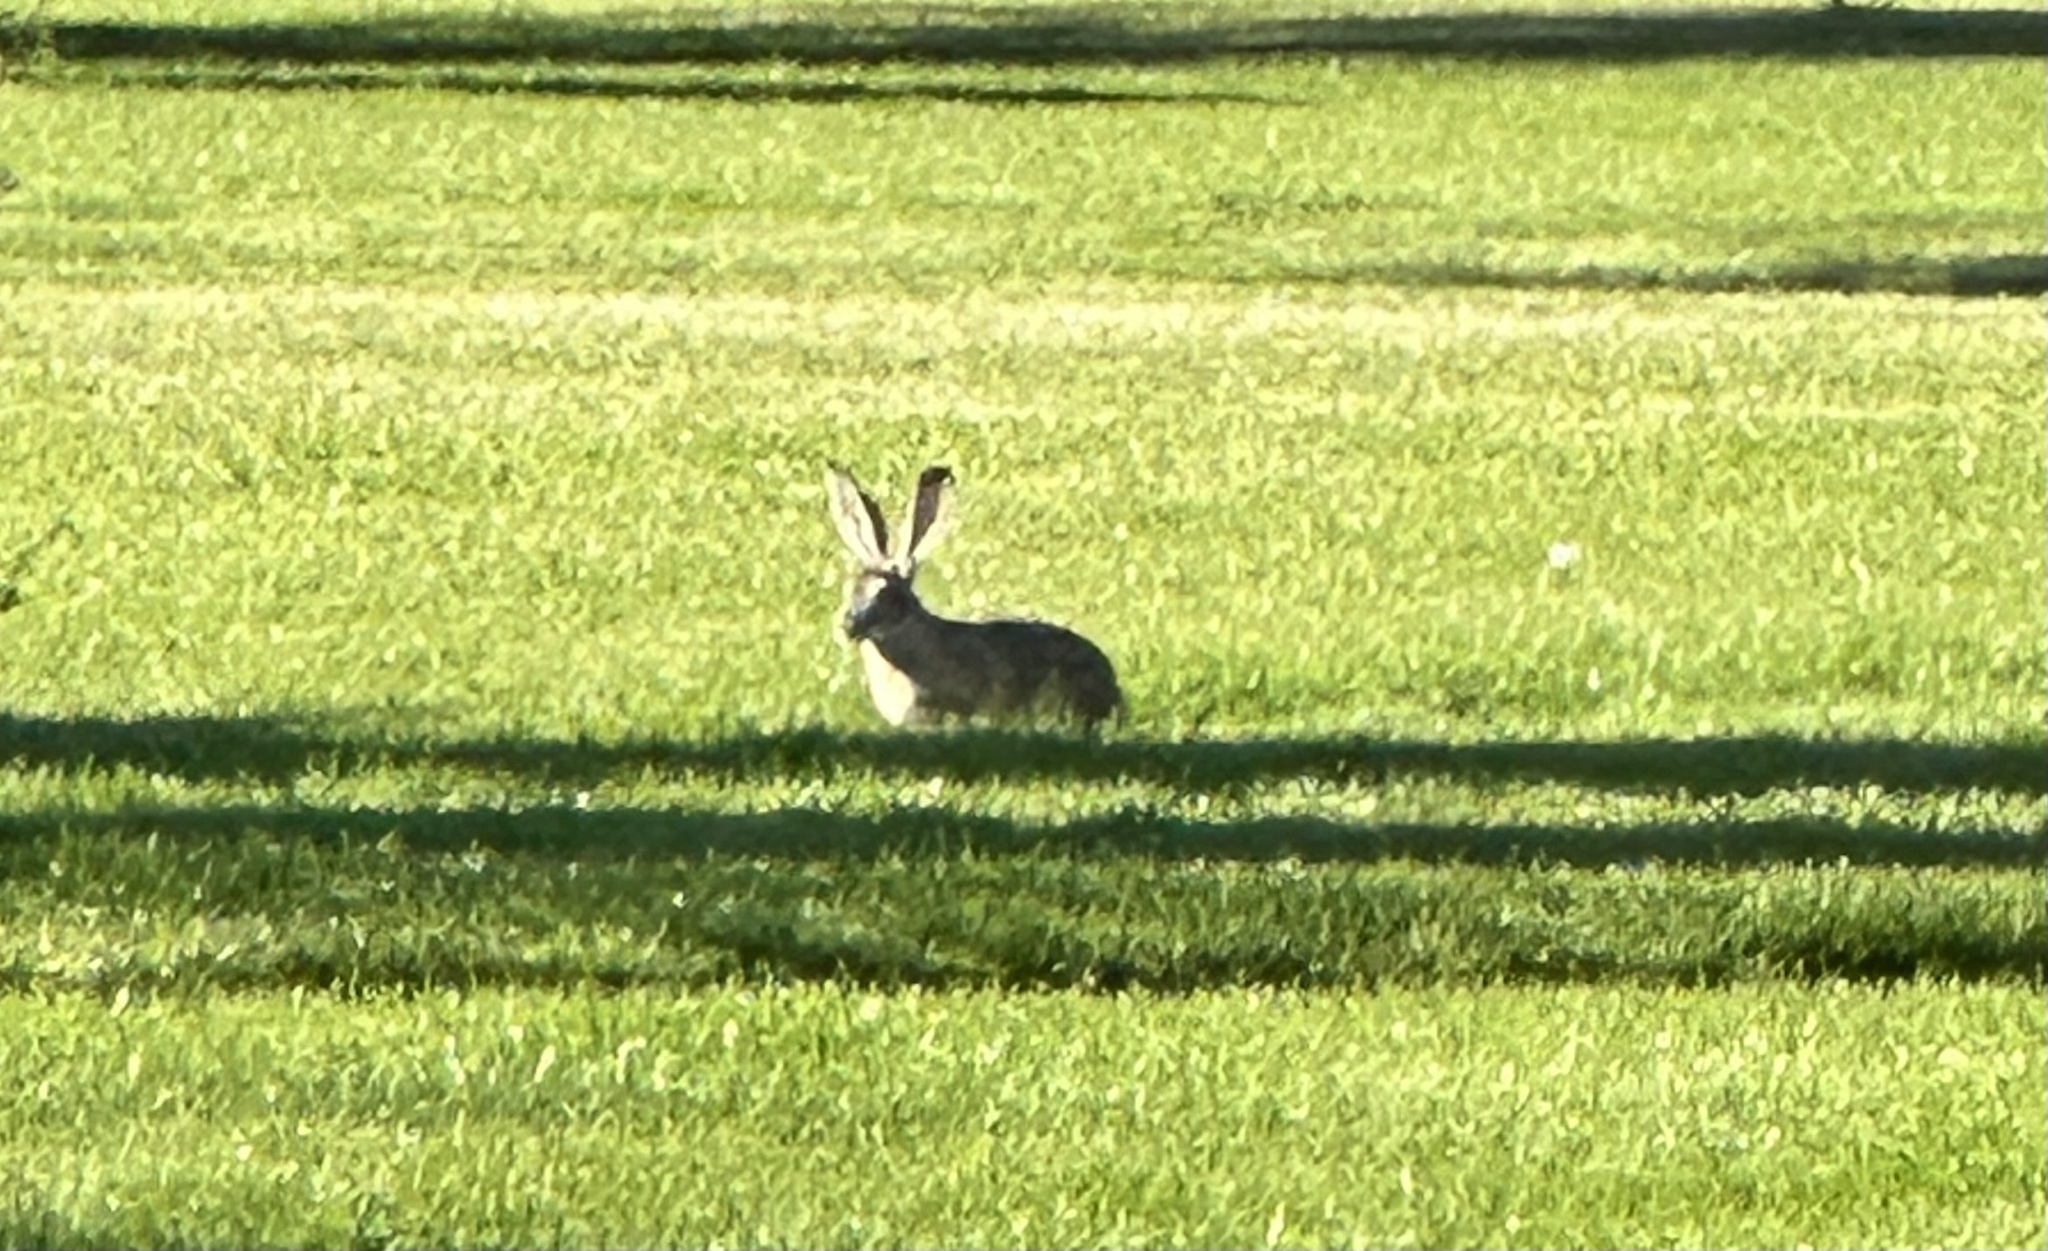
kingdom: Animalia
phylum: Chordata
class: Mammalia
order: Lagomorpha
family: Leporidae
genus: Lepus
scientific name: Lepus californicus
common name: Black-tailed jackrabbit
